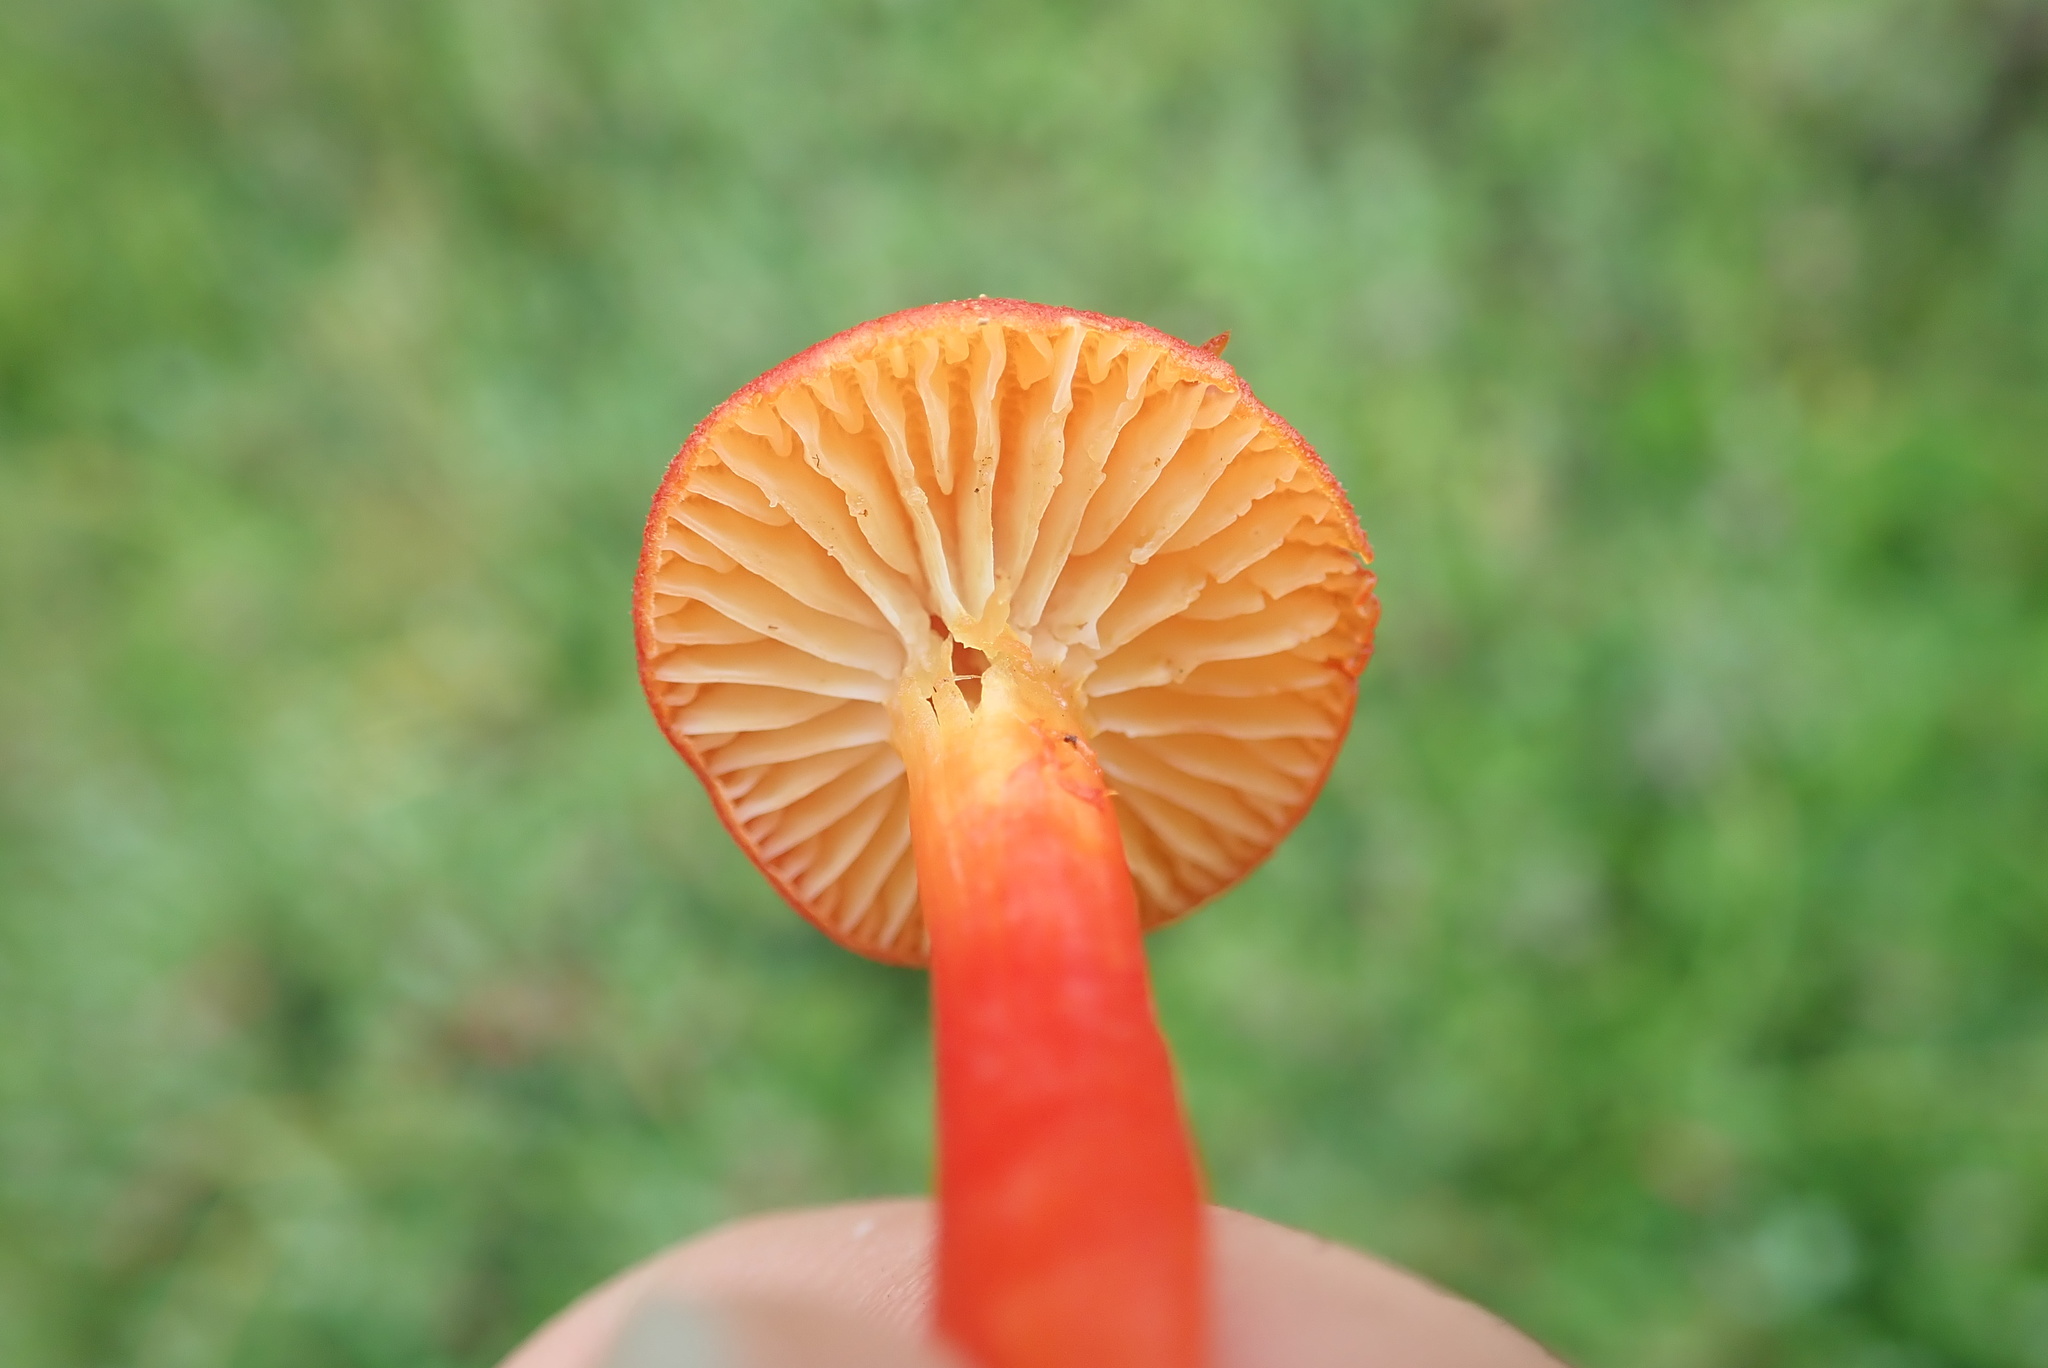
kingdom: Fungi
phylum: Basidiomycota
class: Agaricomycetes
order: Agaricales
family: Hygrophoraceae
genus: Hygrocybe
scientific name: Hygrocybe turunda
